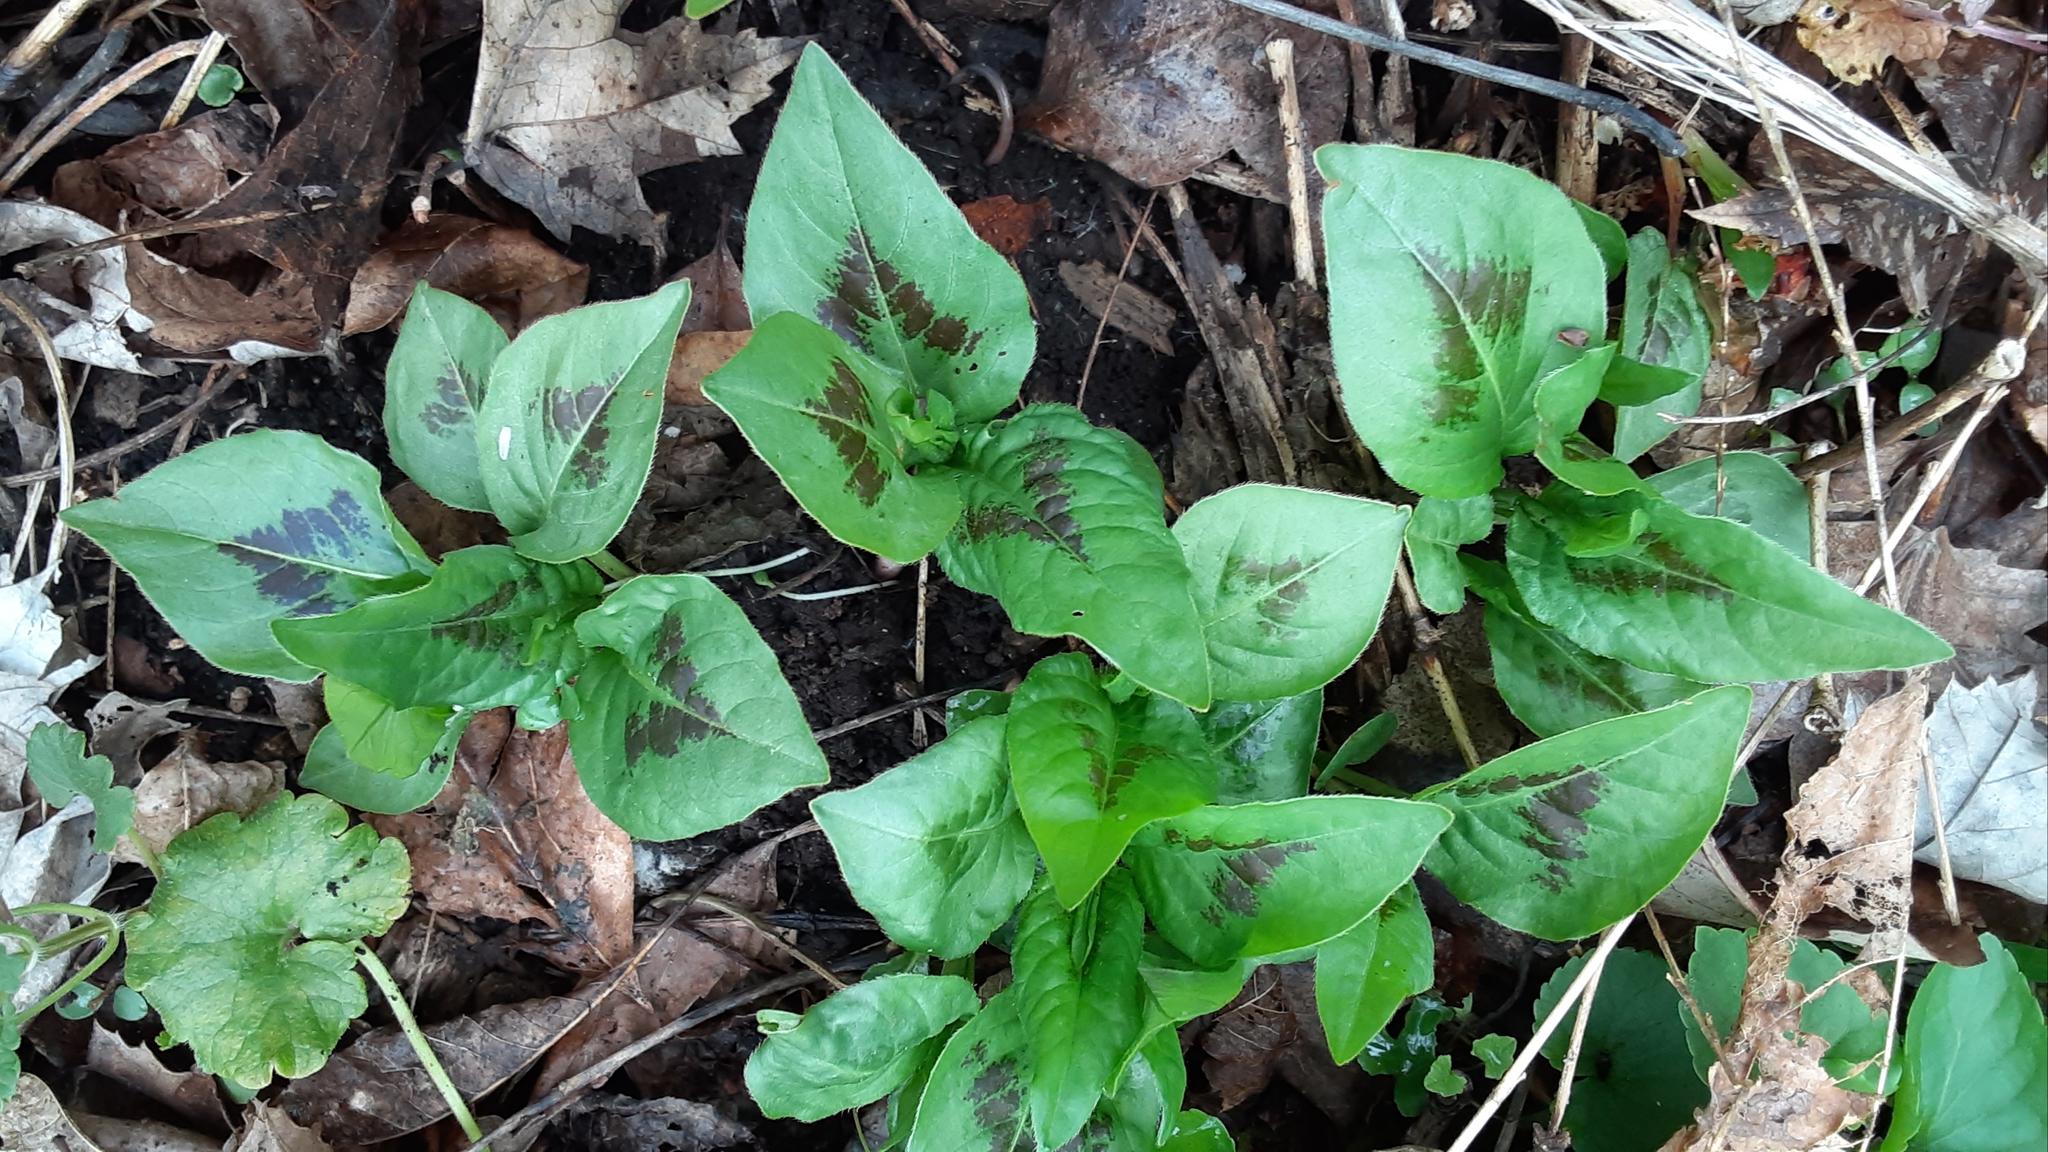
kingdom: Plantae
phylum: Tracheophyta
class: Magnoliopsida
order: Caryophyllales
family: Polygonaceae
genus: Persicaria
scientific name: Persicaria virginiana
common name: Jumpseed
